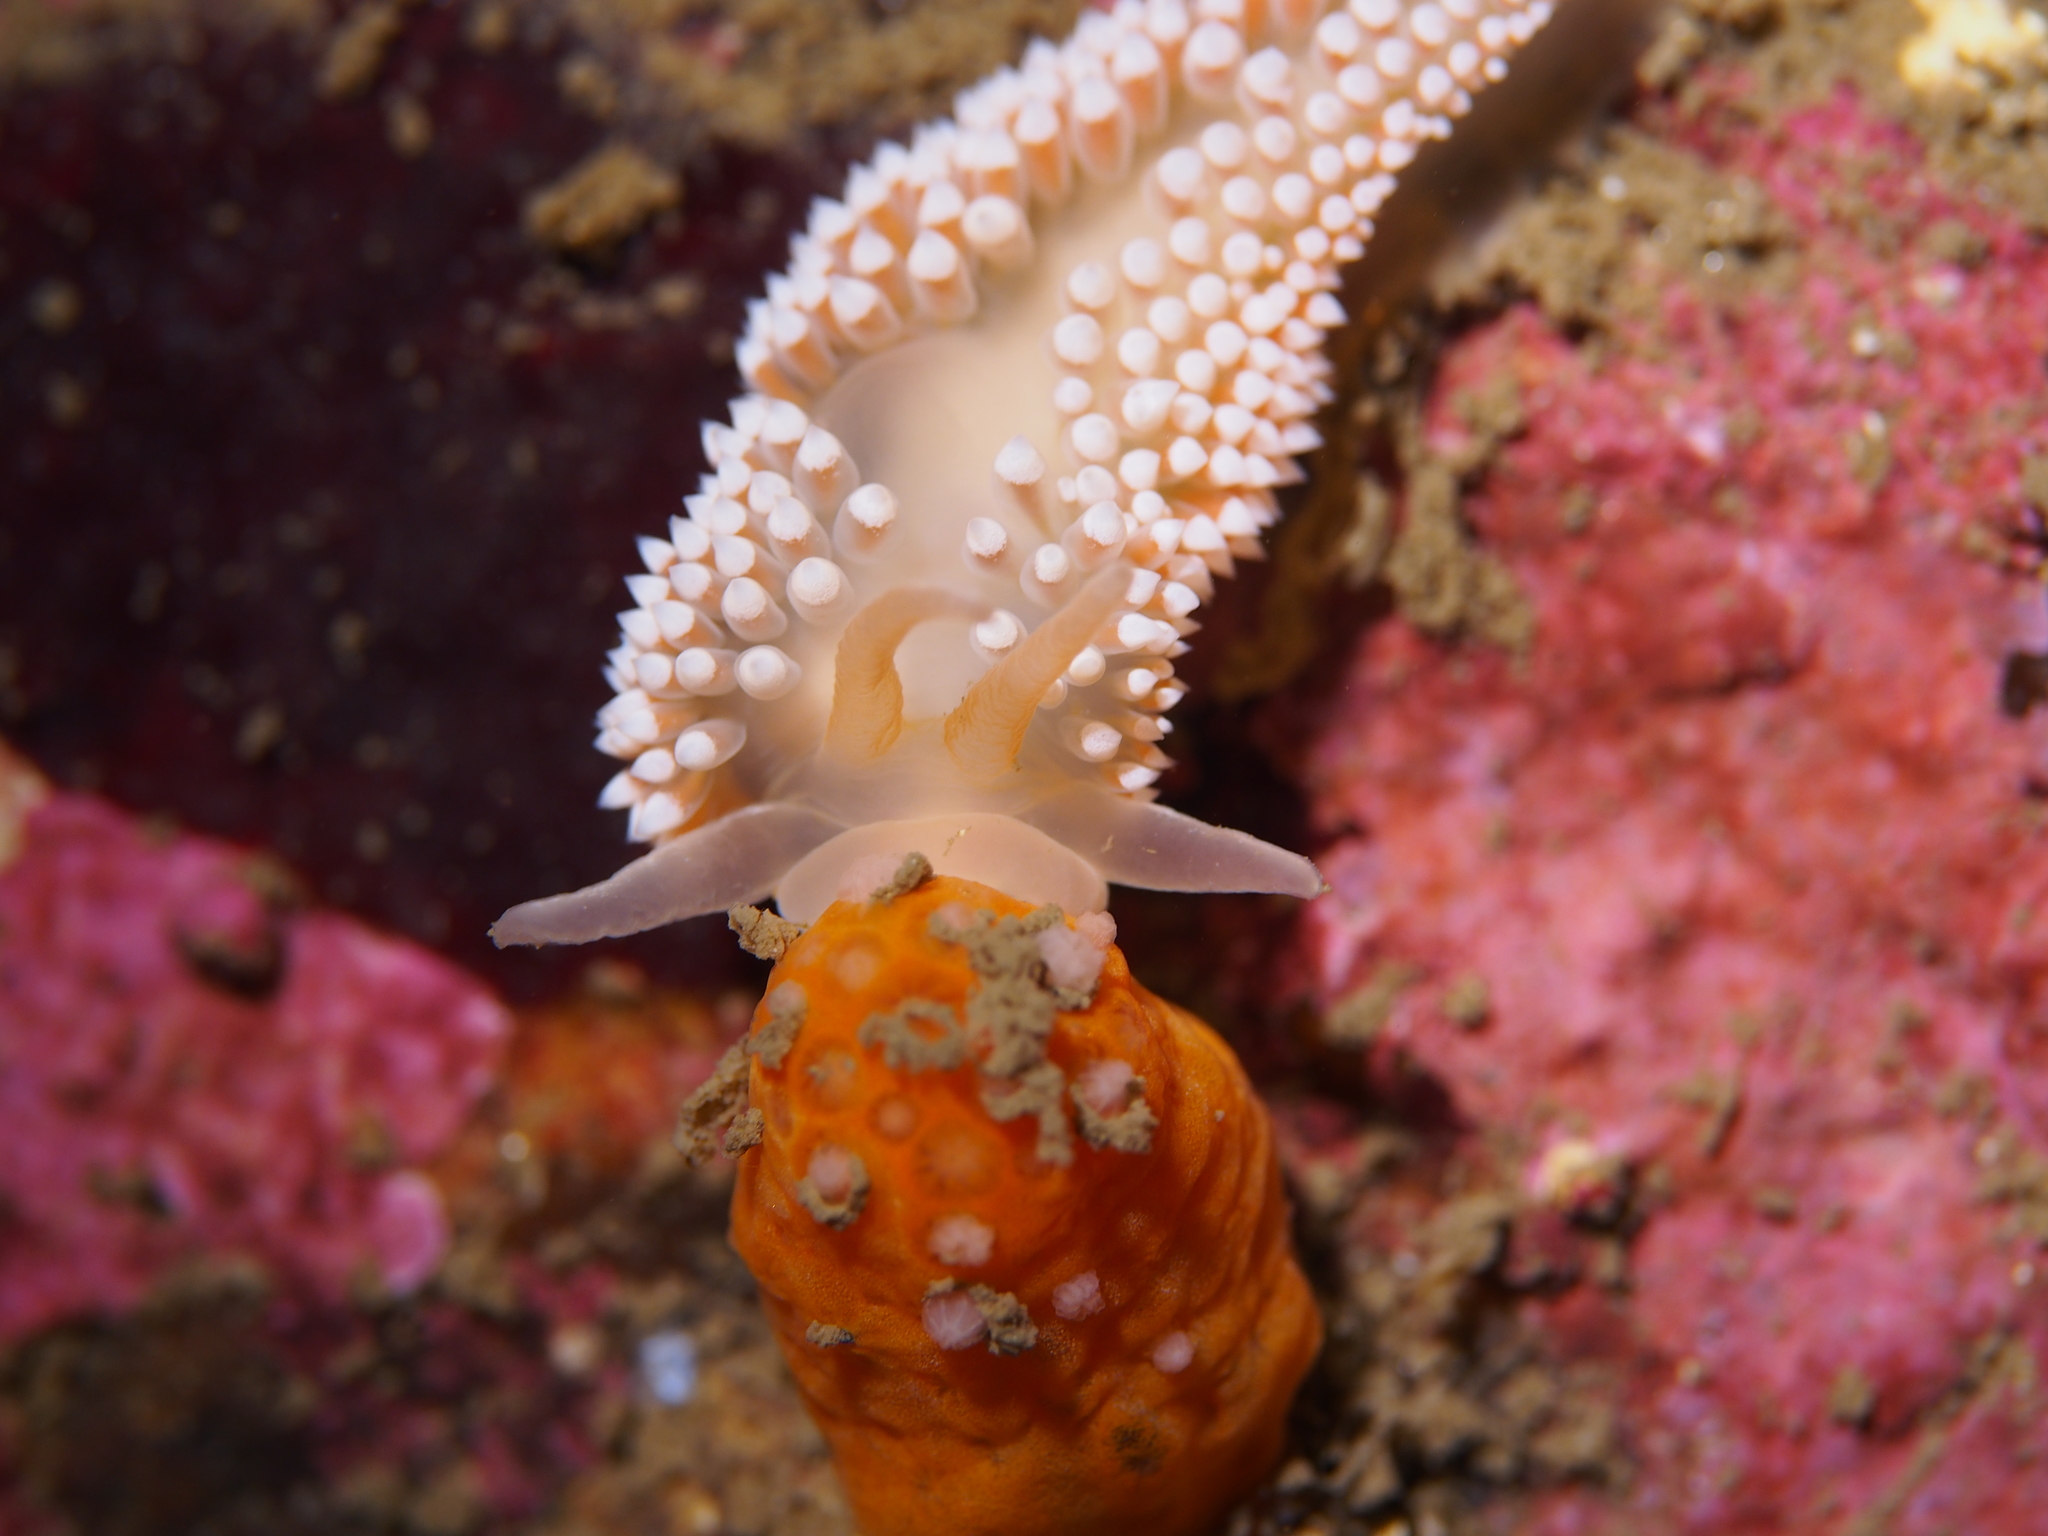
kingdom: Animalia
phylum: Mollusca
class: Gastropoda
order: Nudibranchia
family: Coryphellidae
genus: Coryphella
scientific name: Coryphella verrucosa
